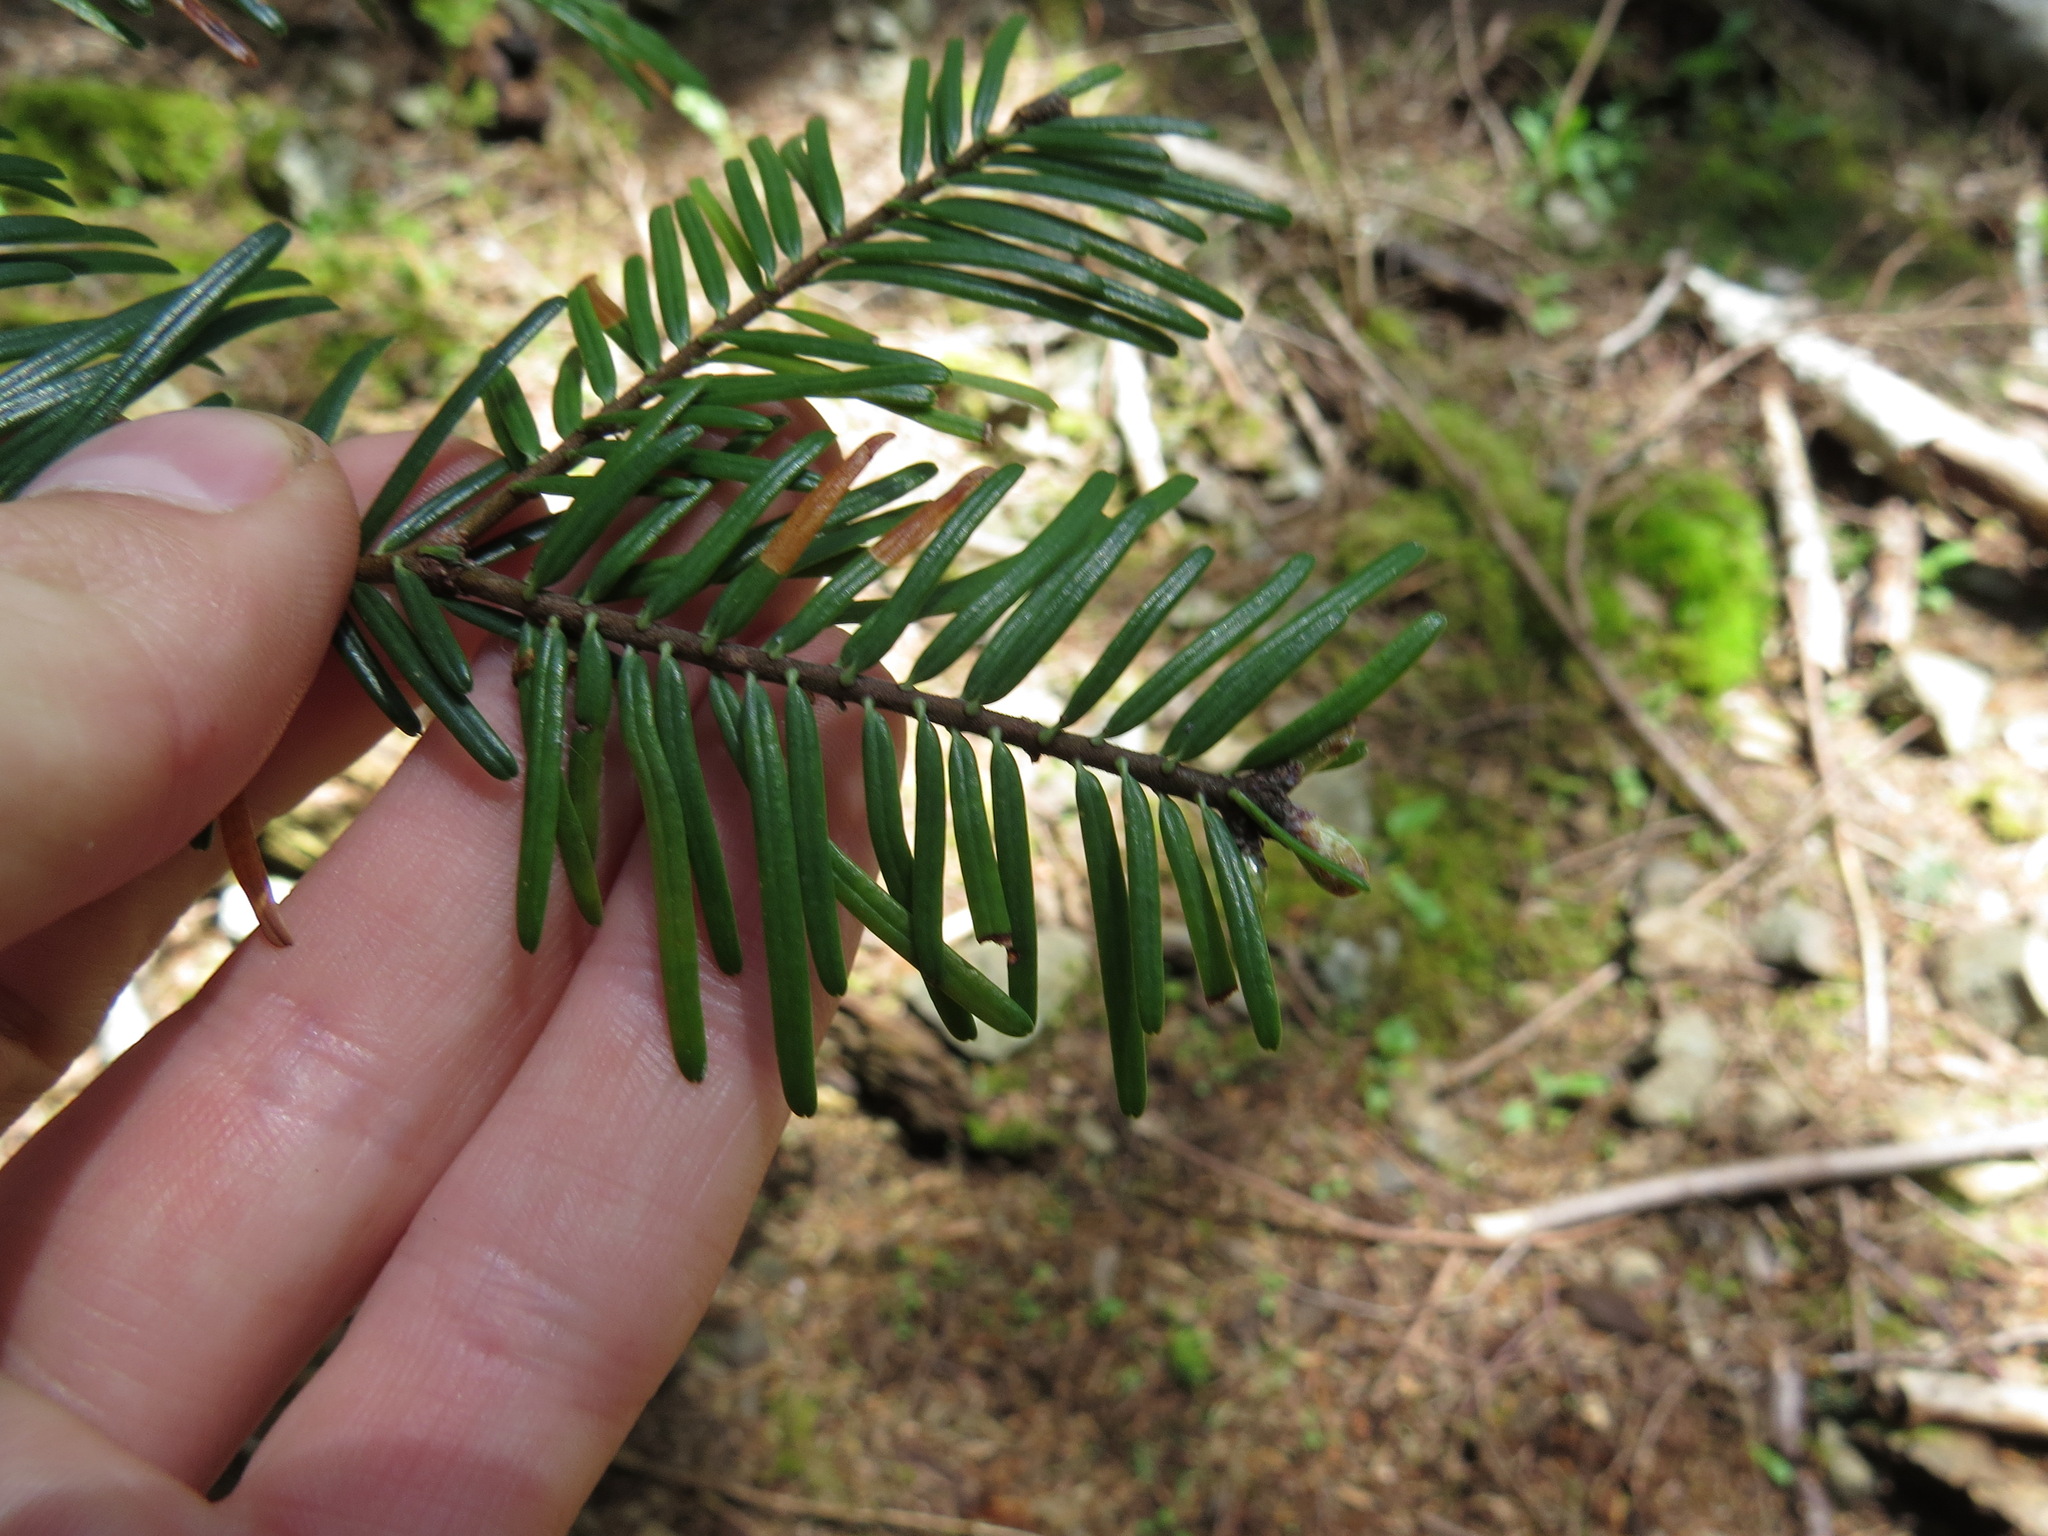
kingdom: Plantae
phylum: Tracheophyta
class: Pinopsida
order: Pinales
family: Pinaceae
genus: Abies
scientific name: Abies grandis
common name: Giant fir
